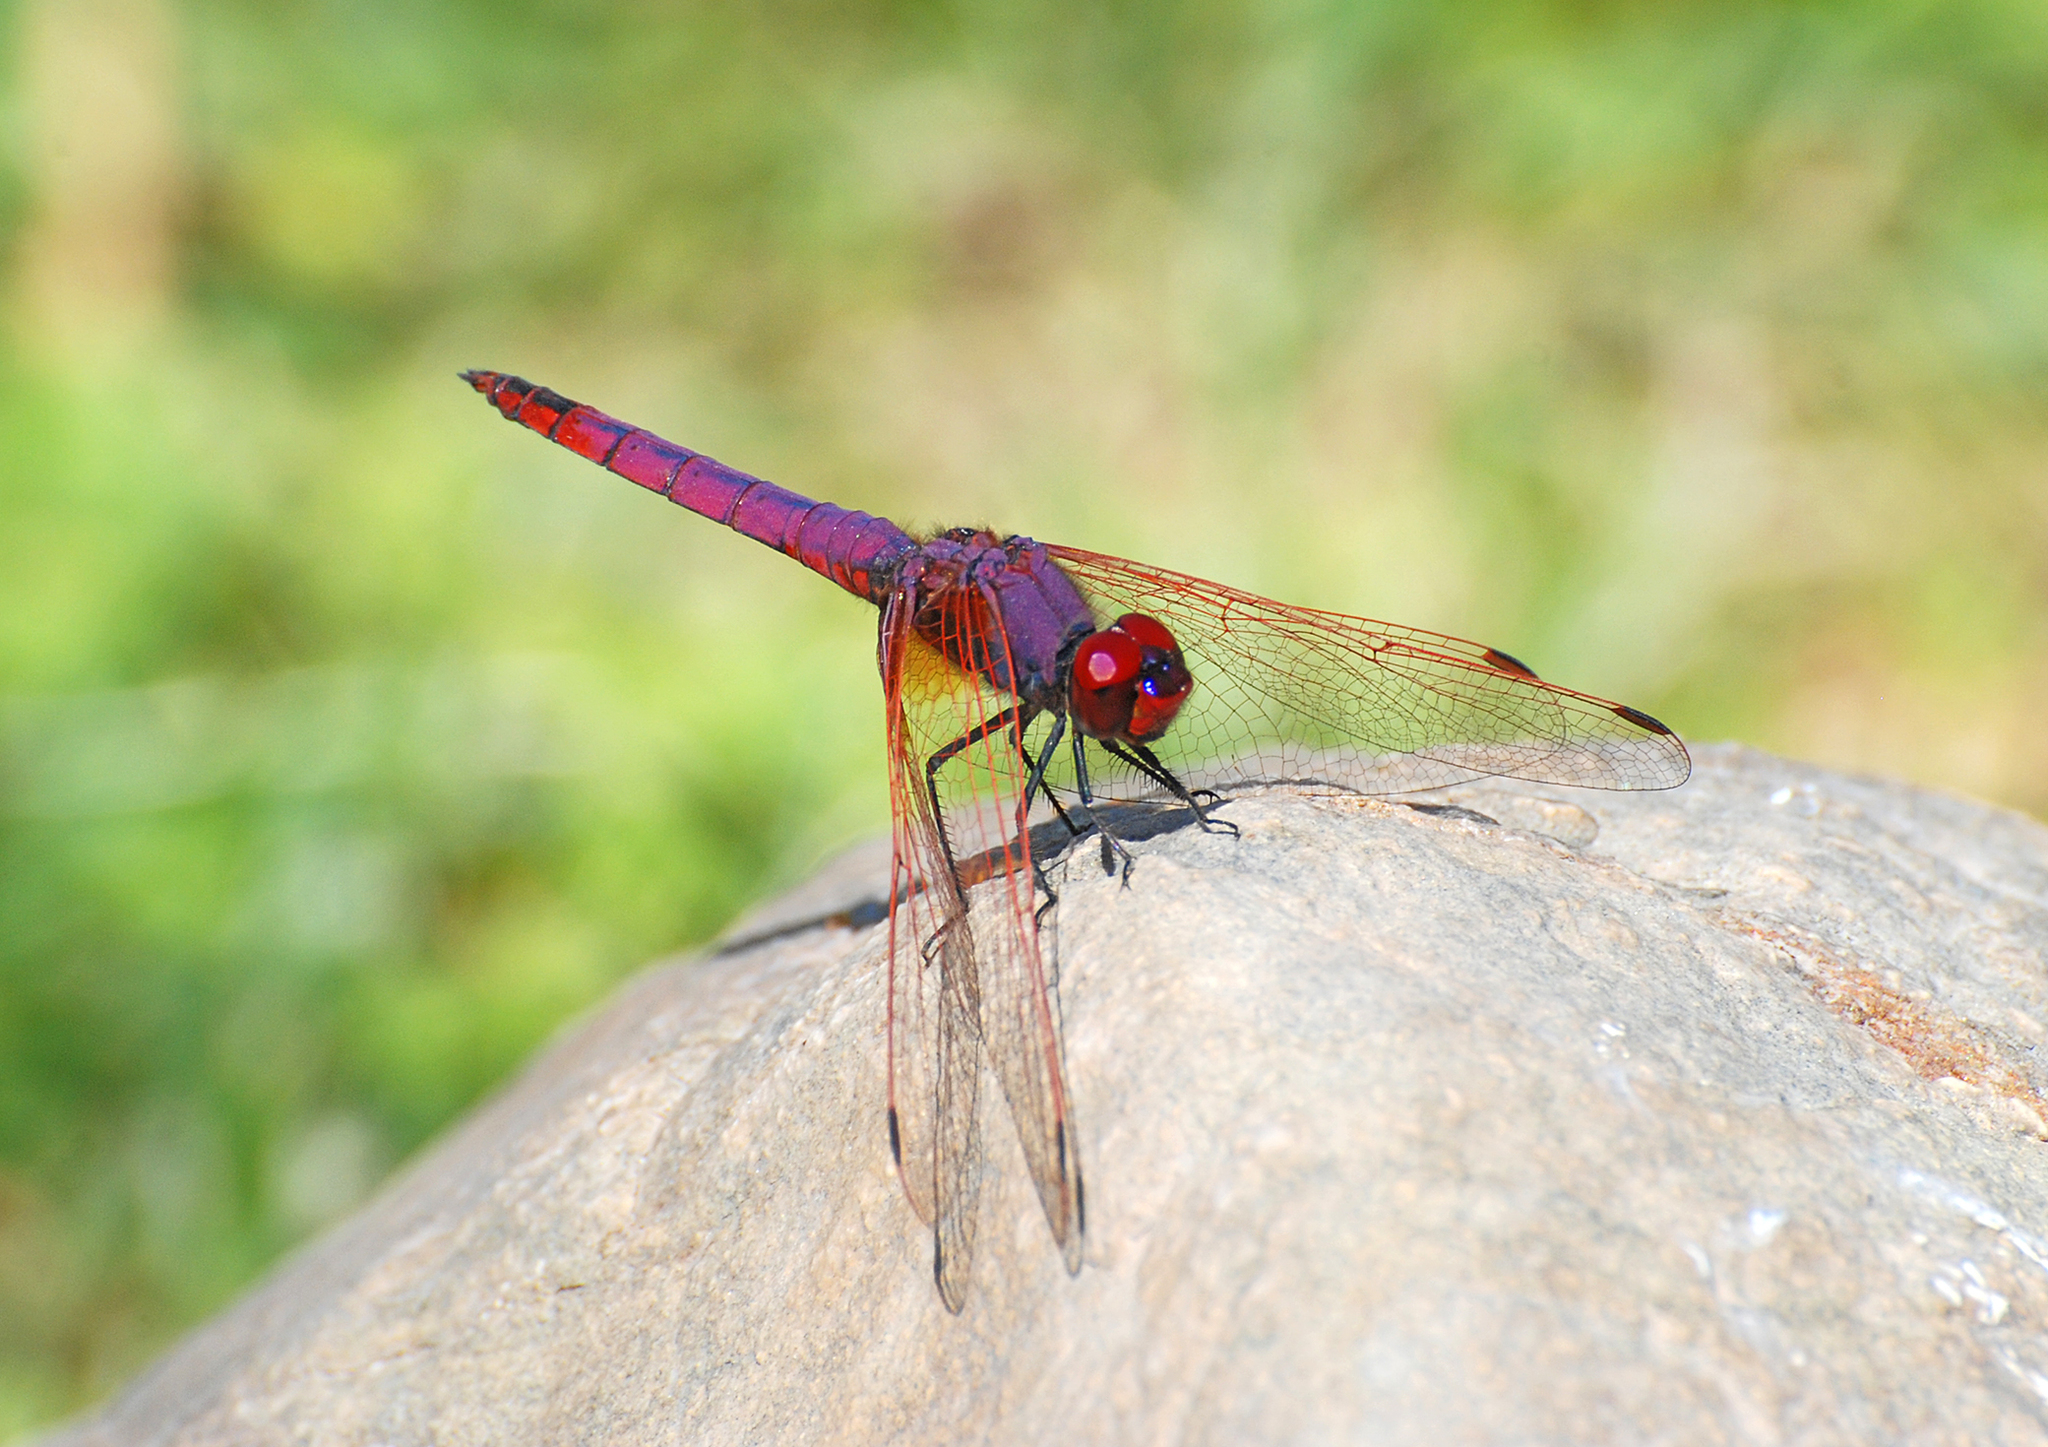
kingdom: Animalia
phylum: Arthropoda
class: Insecta
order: Odonata
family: Libellulidae
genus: Trithemis
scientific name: Trithemis annulata
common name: Violet dropwing
